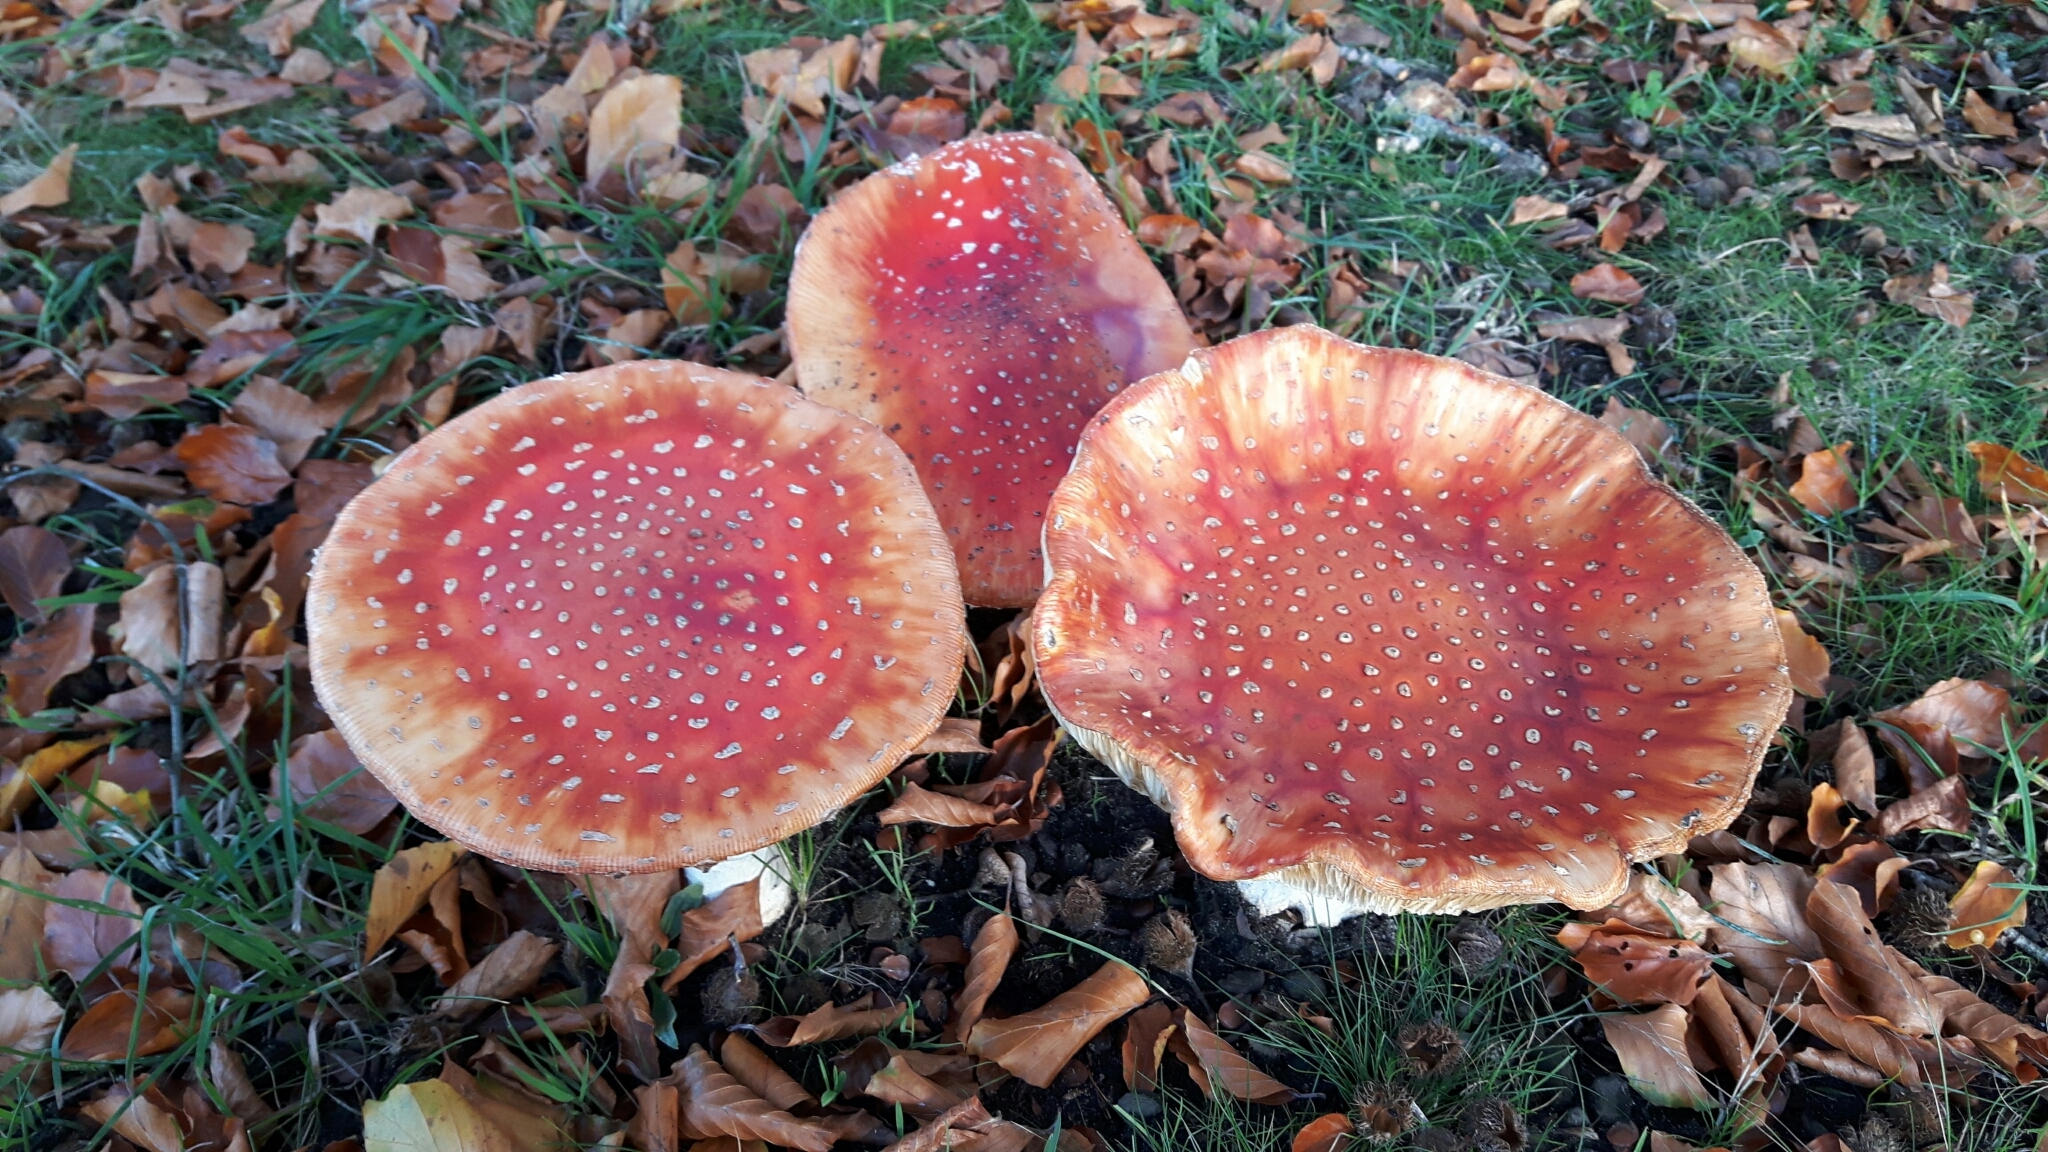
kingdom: Fungi
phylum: Basidiomycota
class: Agaricomycetes
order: Agaricales
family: Amanitaceae
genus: Amanita
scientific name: Amanita muscaria
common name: Fly agaric
